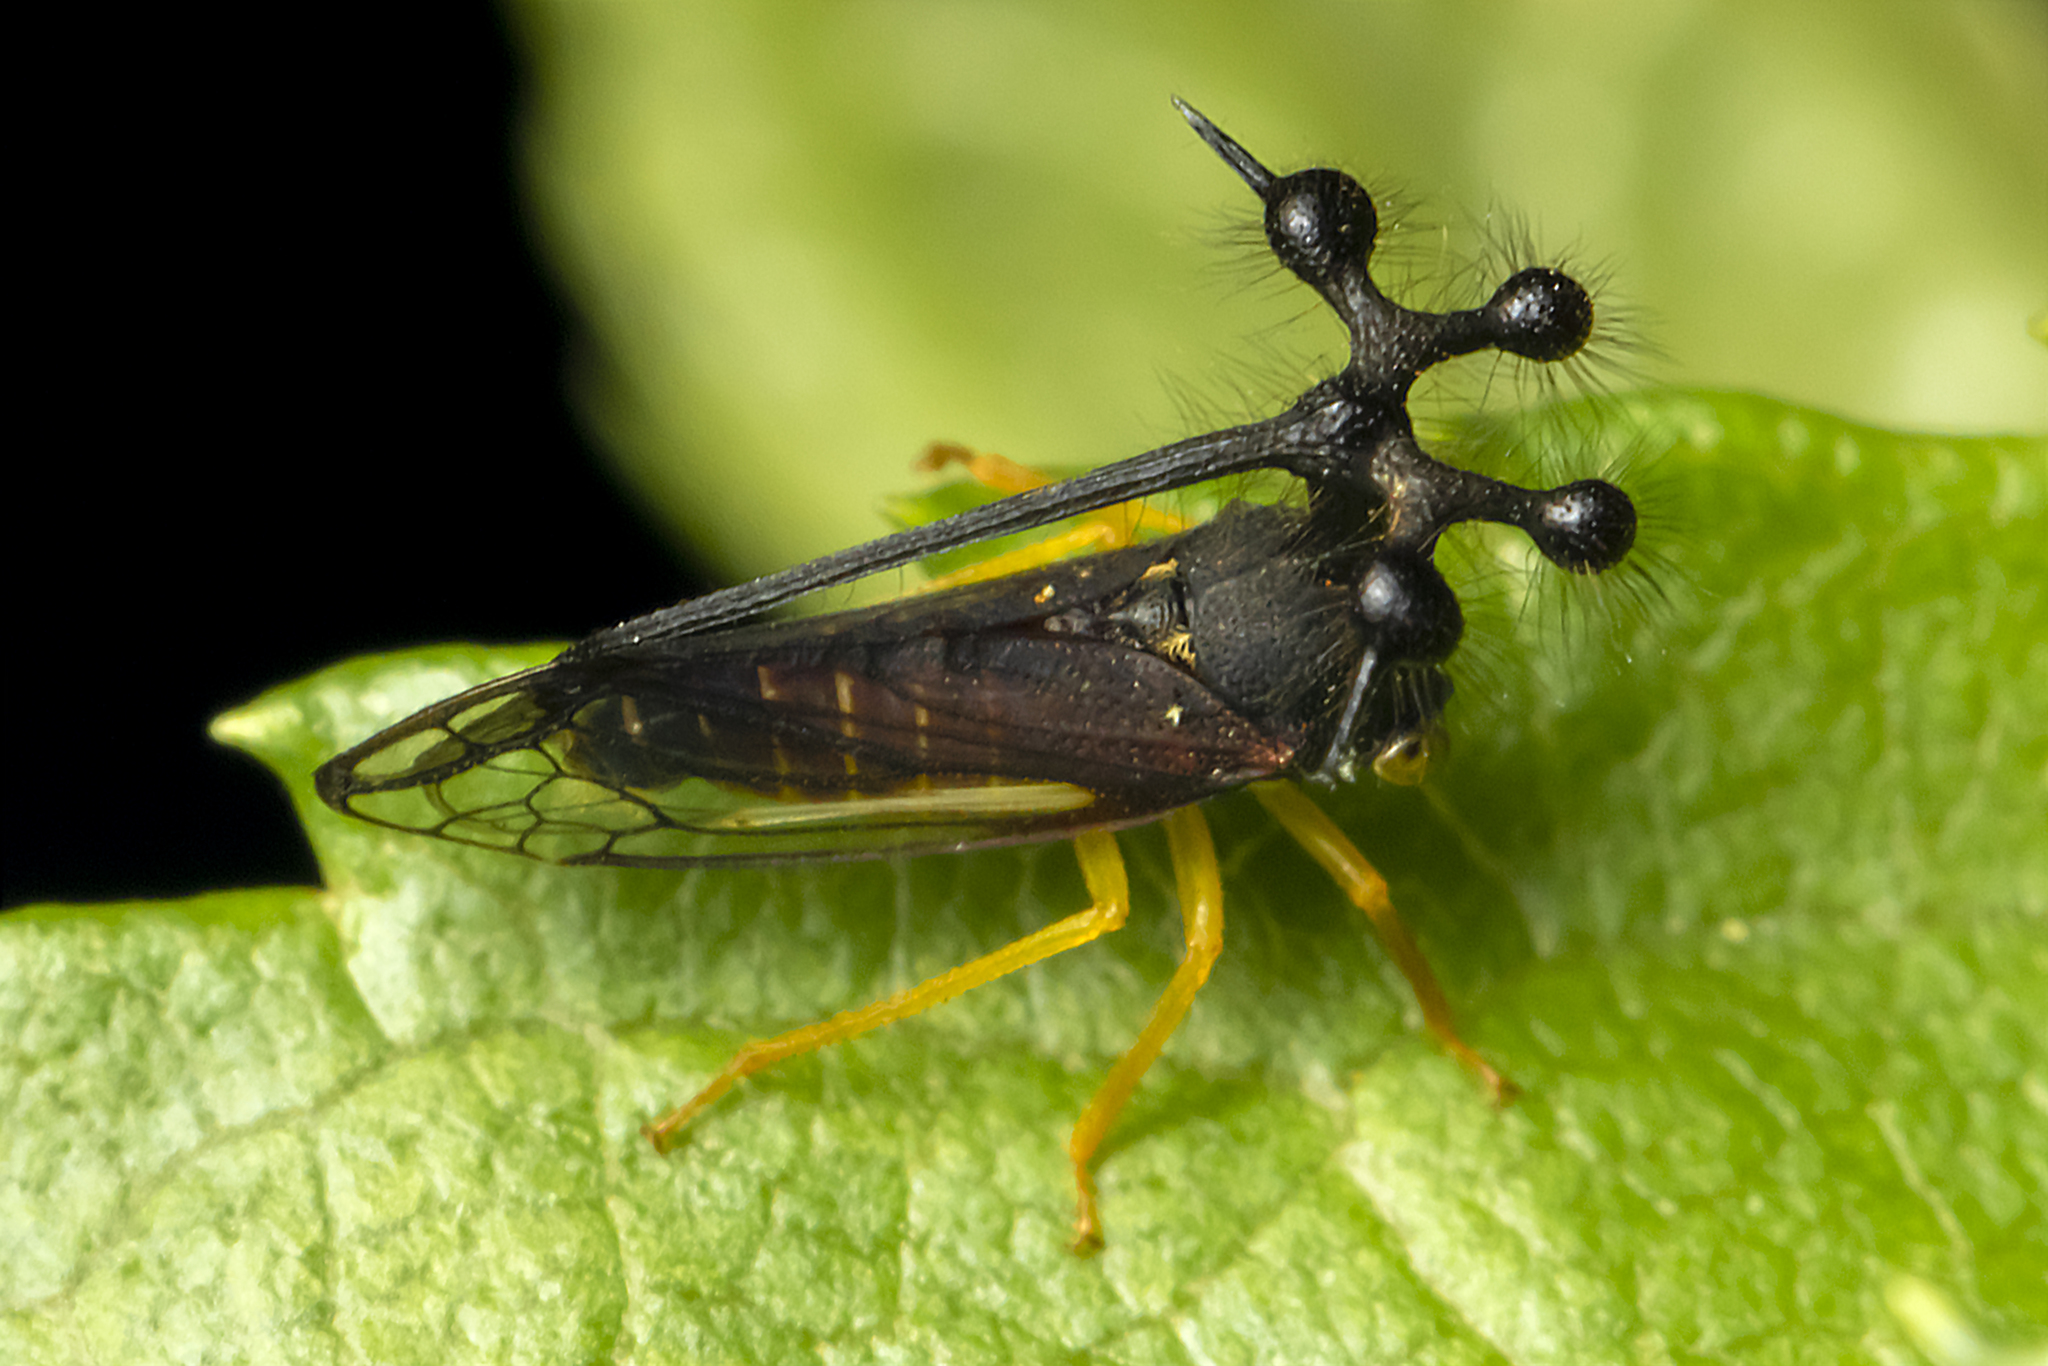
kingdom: Animalia
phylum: Arthropoda
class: Insecta
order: Hemiptera
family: Membracidae
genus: Bocydium
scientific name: Bocydium globulare
